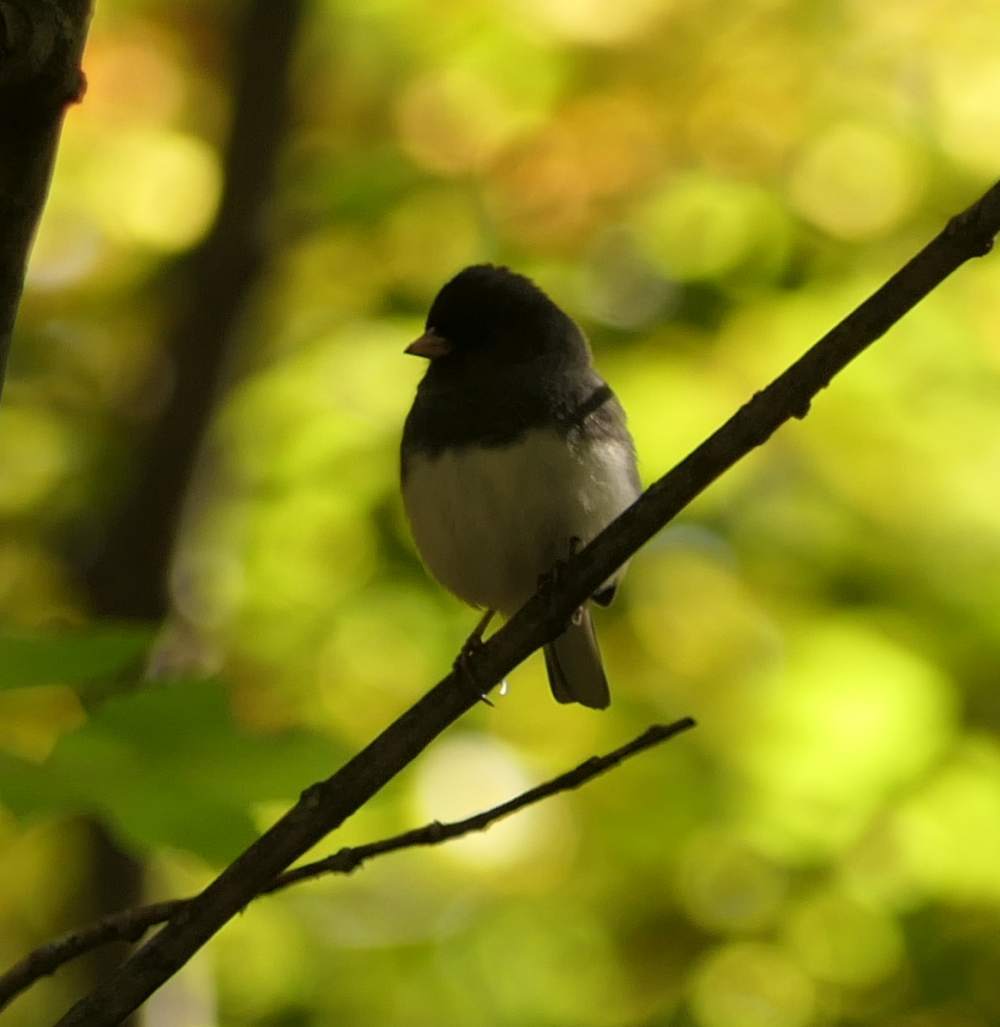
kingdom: Animalia
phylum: Chordata
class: Aves
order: Passeriformes
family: Passerellidae
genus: Junco
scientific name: Junco hyemalis
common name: Dark-eyed junco
